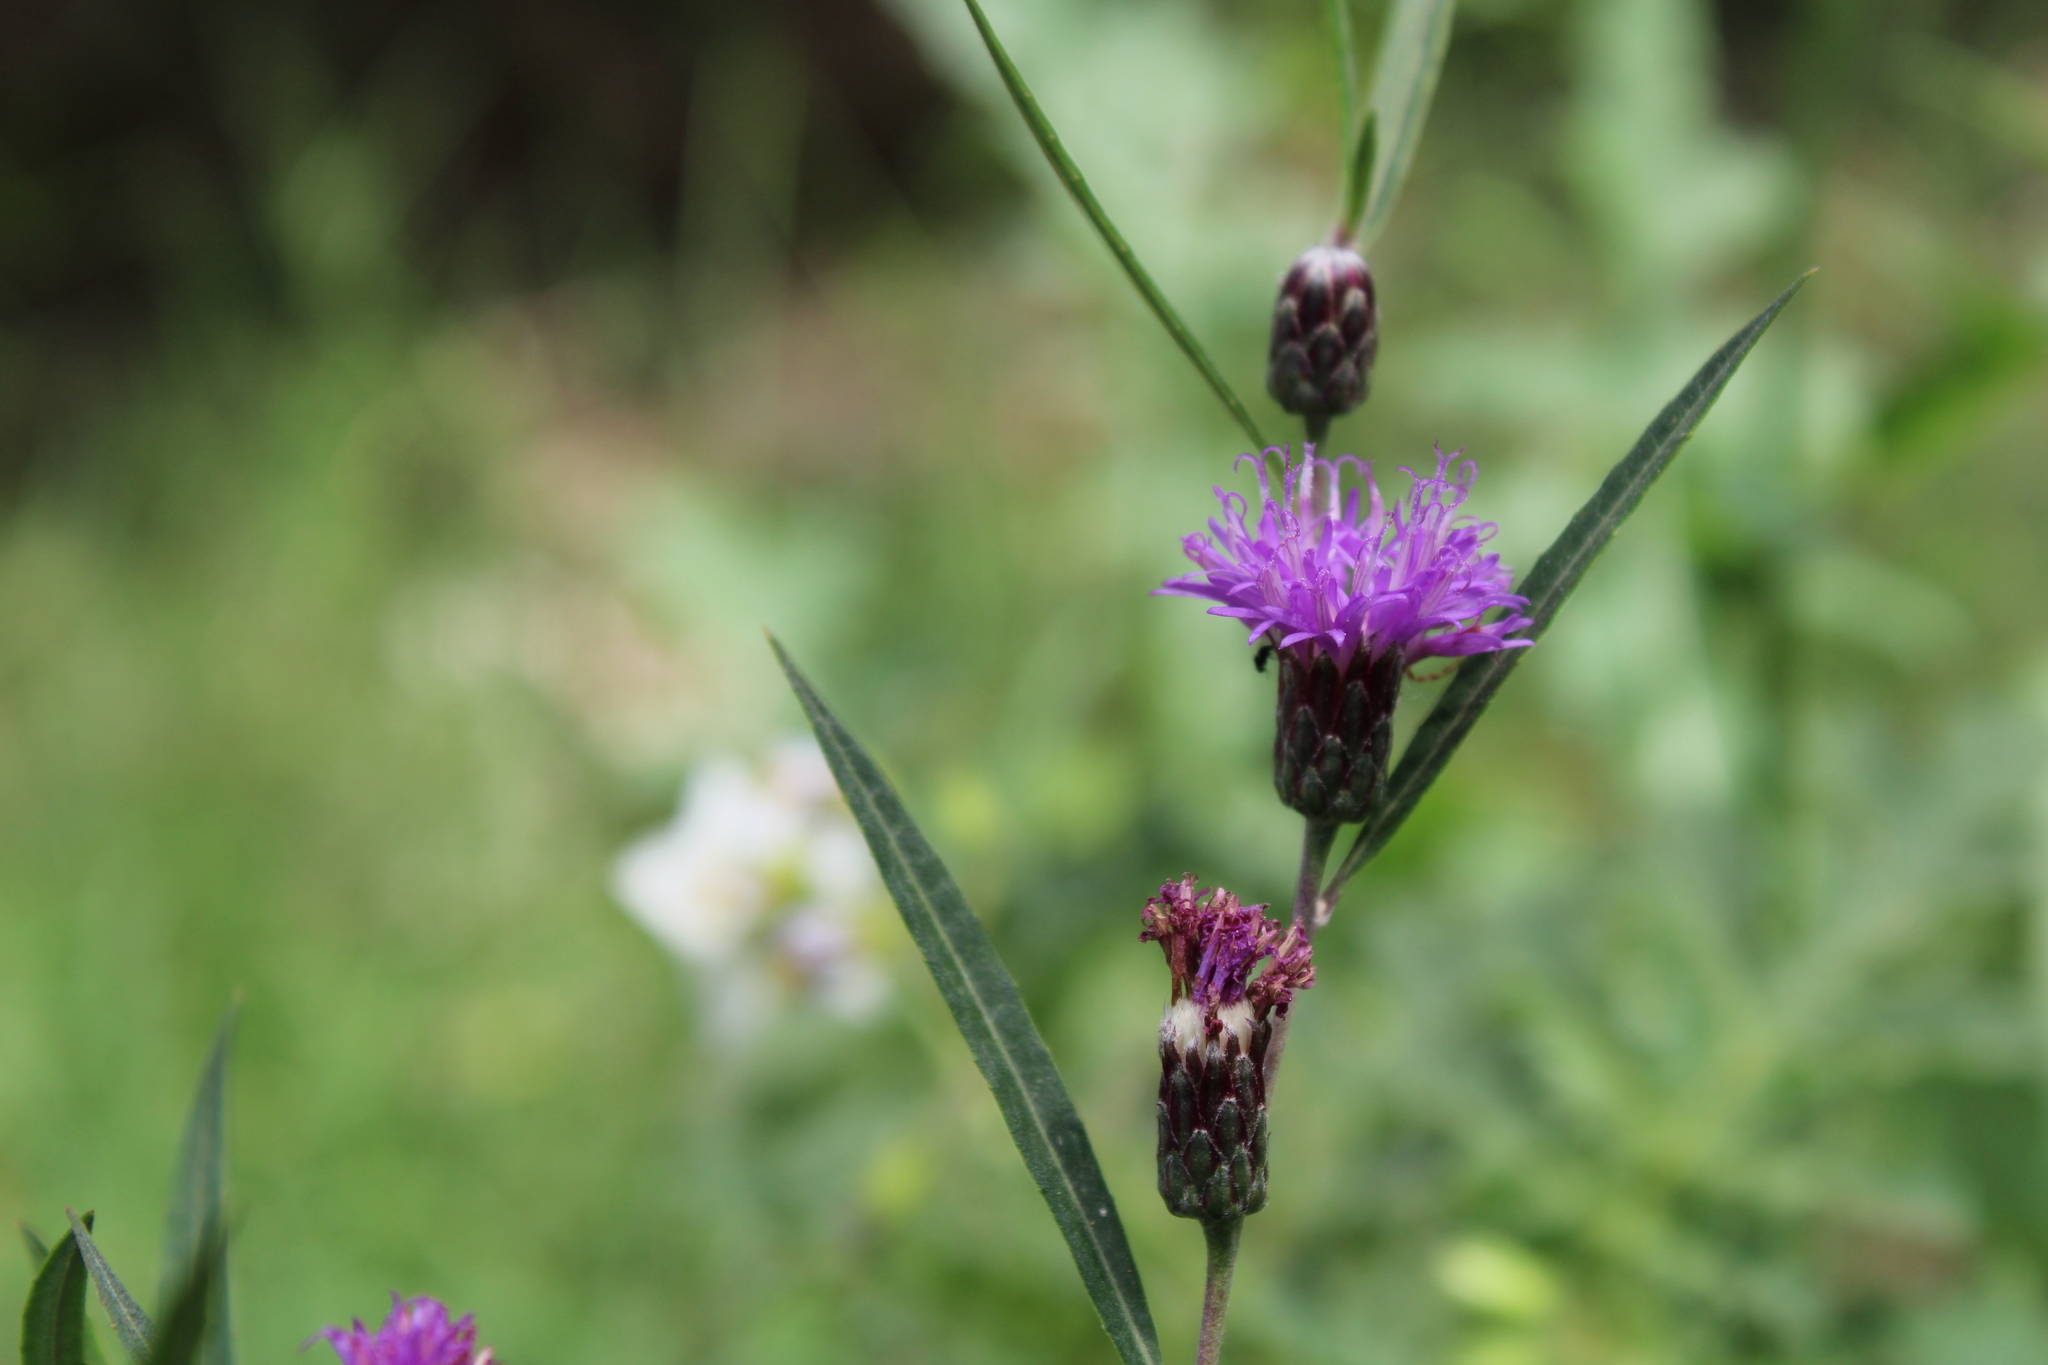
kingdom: Plantae
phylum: Tracheophyta
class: Magnoliopsida
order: Asterales
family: Asteraceae
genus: Lessingianthus
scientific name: Lessingianthus rubricaulis
